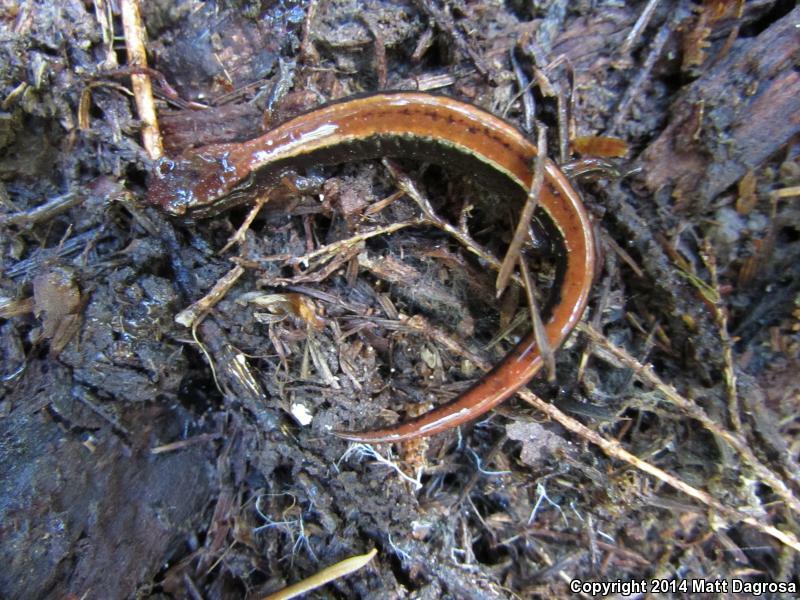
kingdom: Animalia
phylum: Chordata
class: Amphibia
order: Caudata
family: Plethodontidae
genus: Plethodon
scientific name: Plethodon vehiculum
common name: Western red-backed salamander
